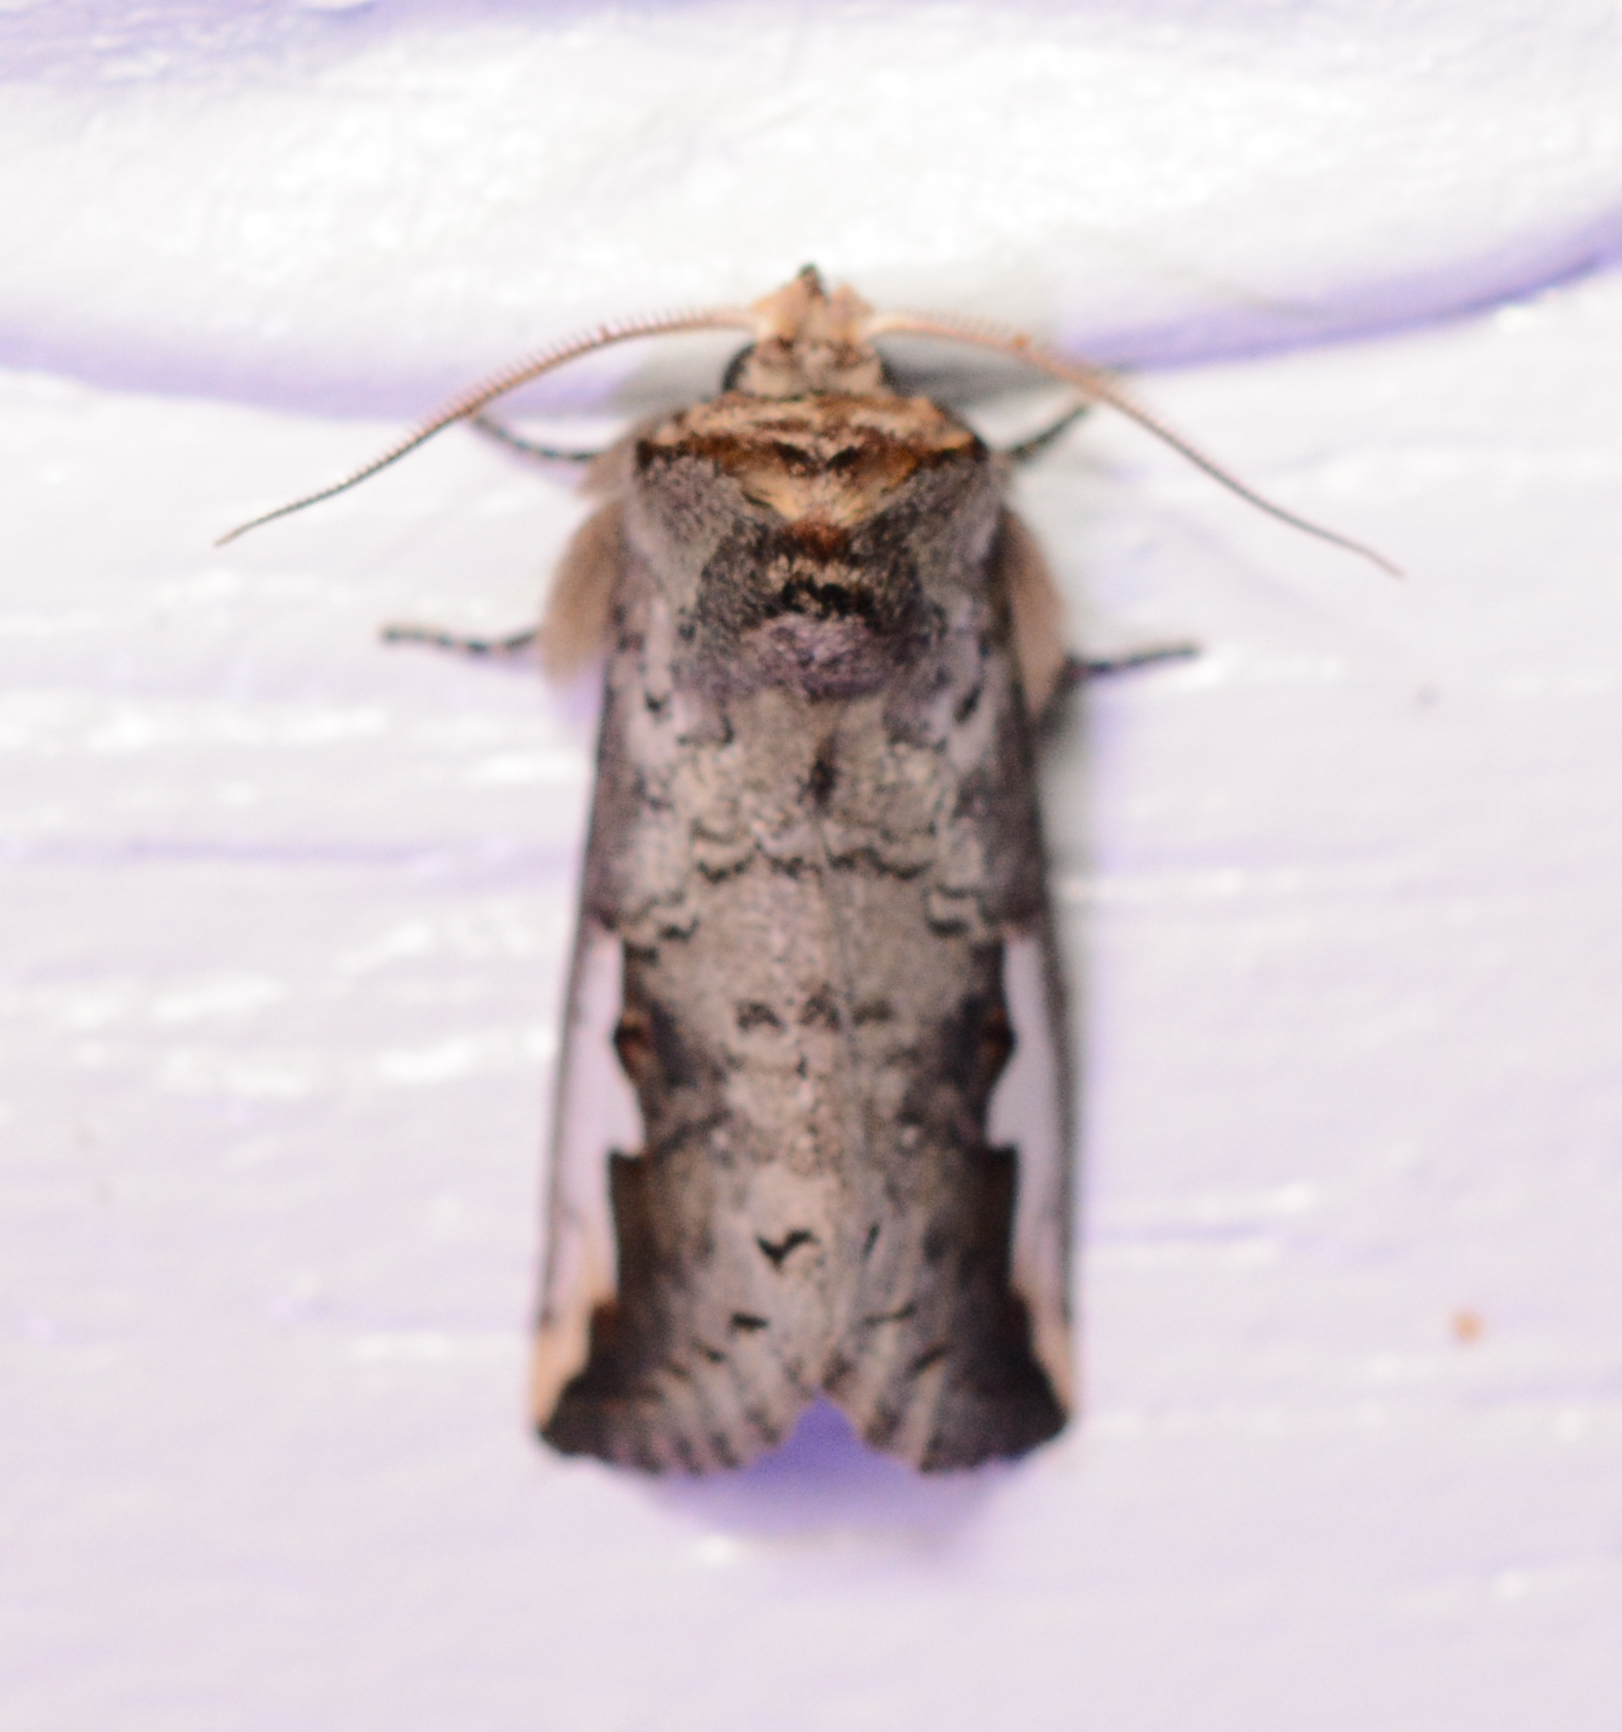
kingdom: Animalia
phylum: Arthropoda
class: Insecta
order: Lepidoptera
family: Notodontidae
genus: Symmerista
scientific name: Symmerista
